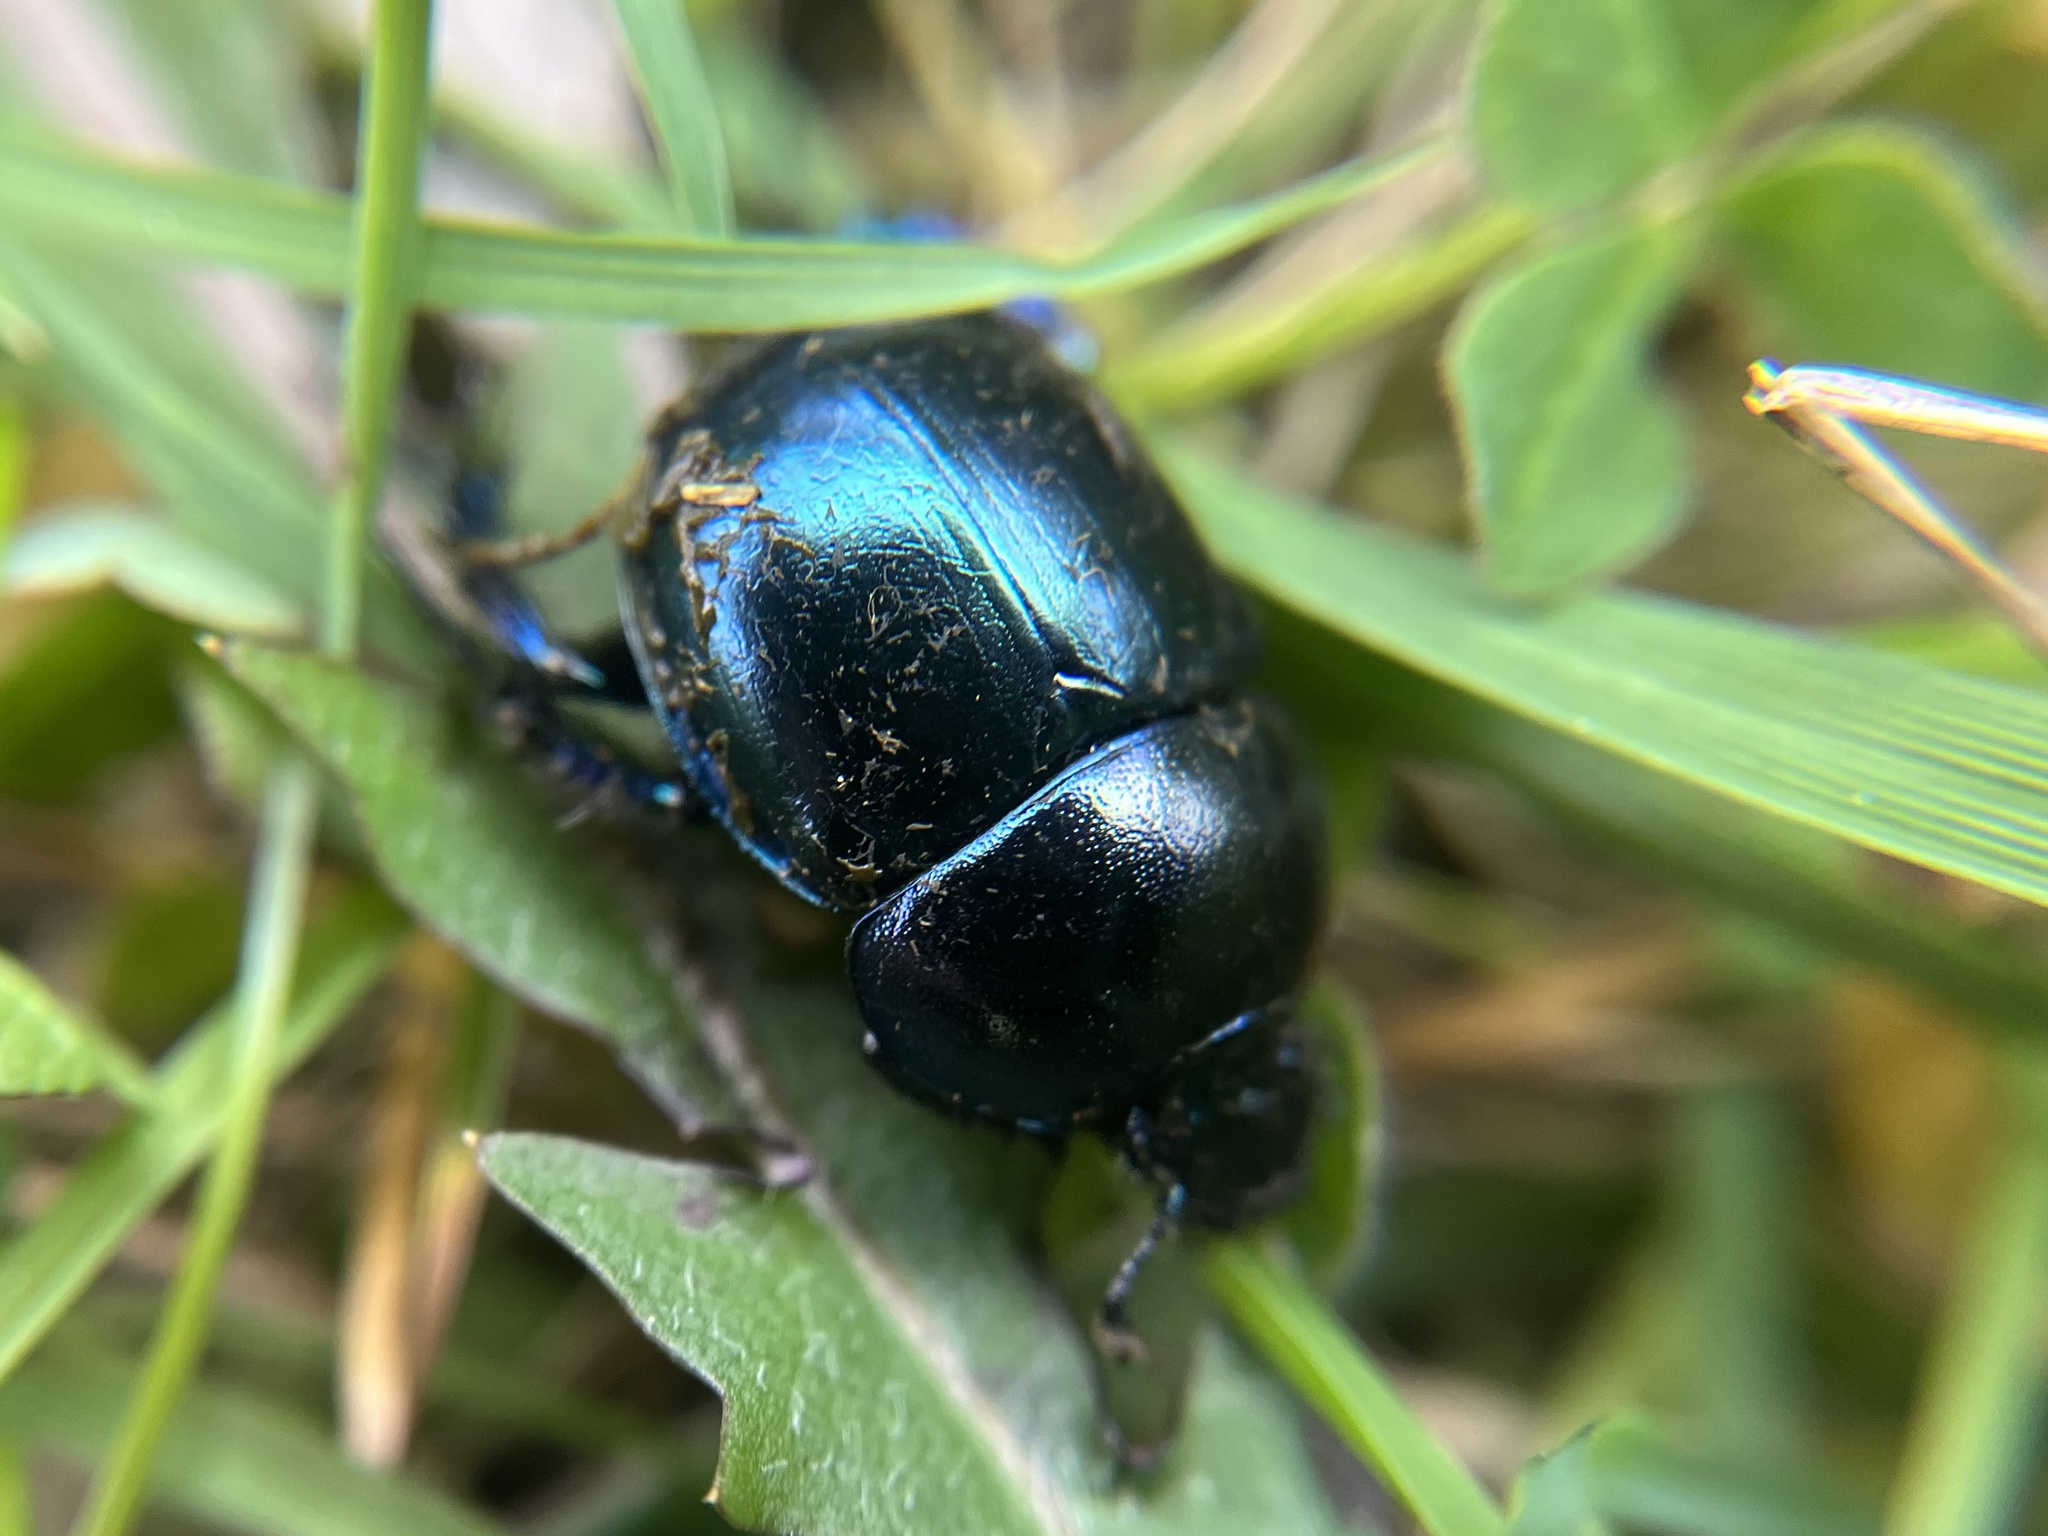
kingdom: Animalia
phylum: Arthropoda
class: Insecta
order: Coleoptera
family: Geotrupidae
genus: Trypocopris
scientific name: Trypocopris vernalis
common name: Spring dumbledor
